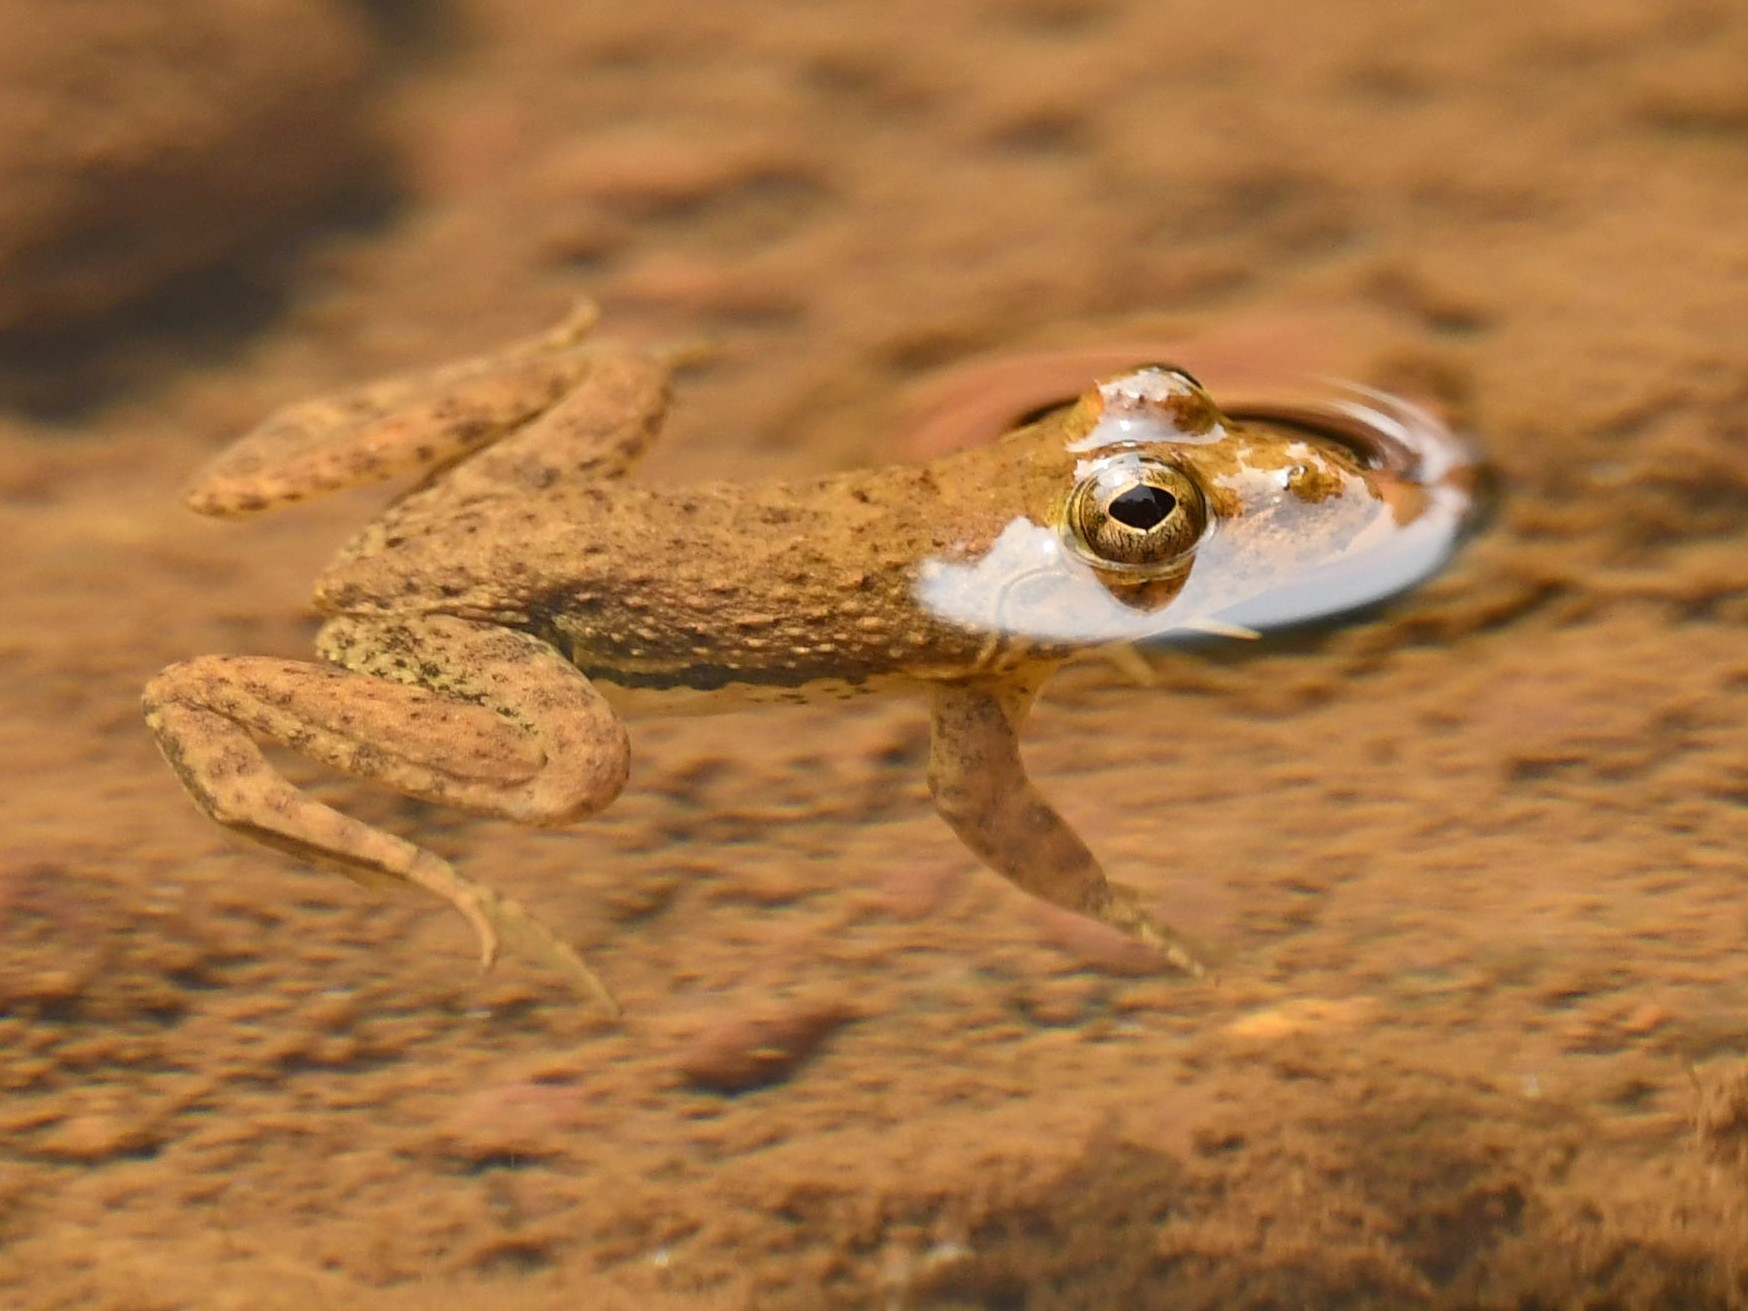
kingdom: Animalia
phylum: Chordata
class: Amphibia
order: Anura
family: Dicroglossidae
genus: Euphlyctis
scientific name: Euphlyctis cyanophlyctis
